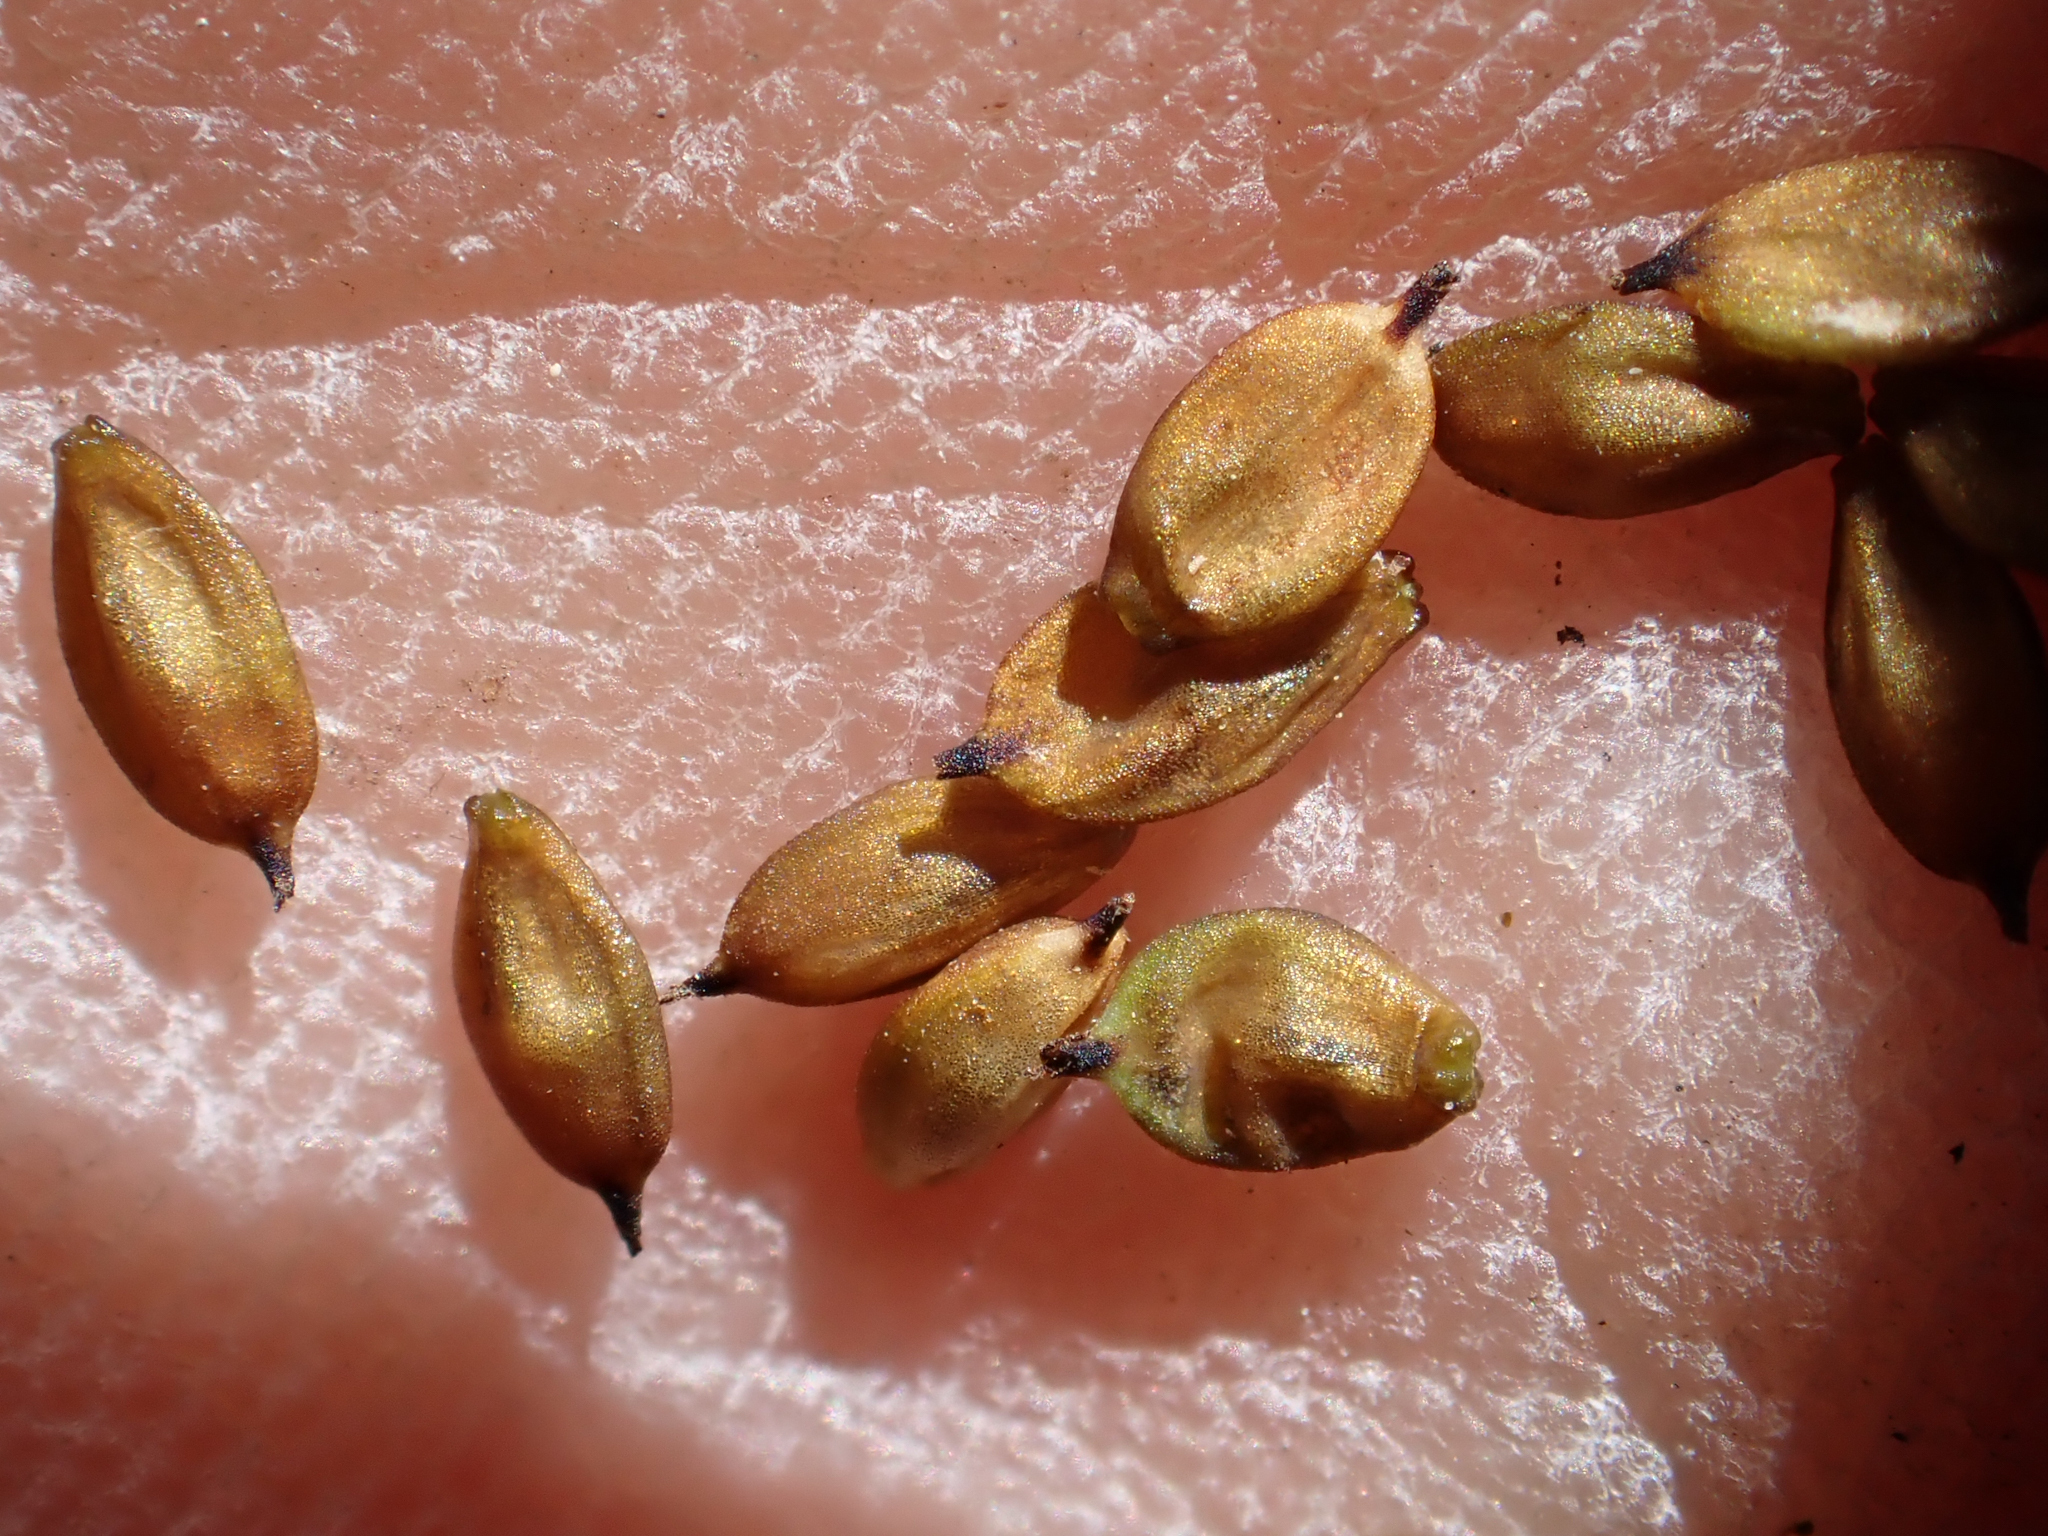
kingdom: Plantae
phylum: Tracheophyta
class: Liliopsida
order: Poales
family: Cyperaceae
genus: Carex
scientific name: Carex media
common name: Alpine sedge
